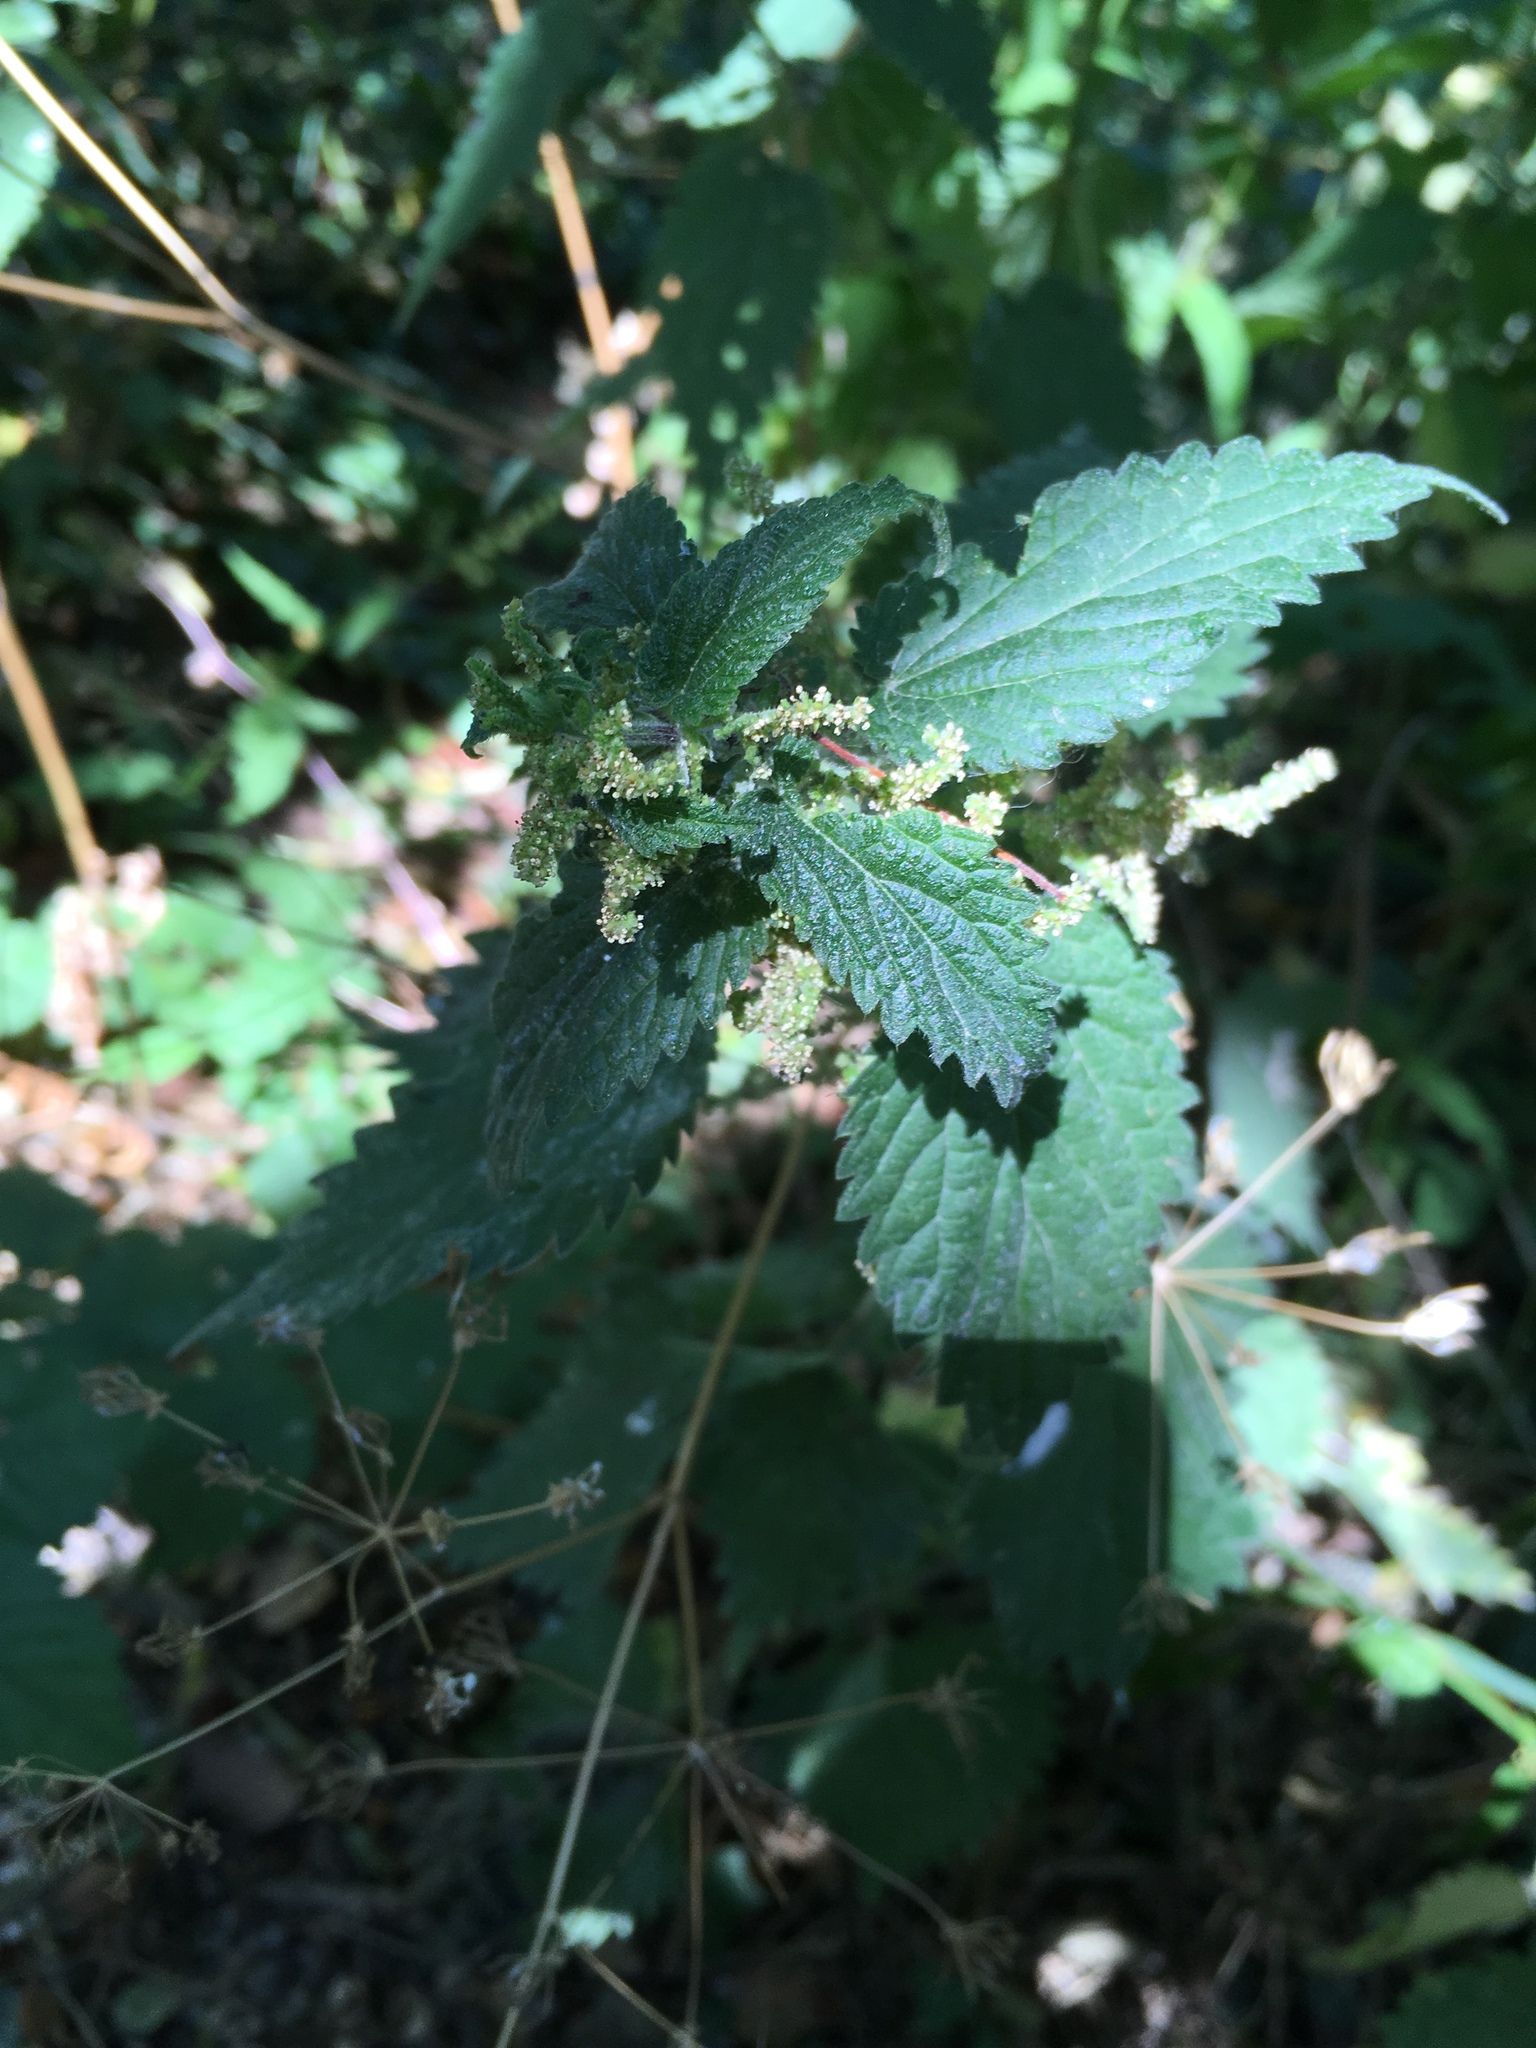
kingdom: Plantae
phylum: Tracheophyta
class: Magnoliopsida
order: Rosales
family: Urticaceae
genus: Urtica
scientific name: Urtica dioica
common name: Common nettle
